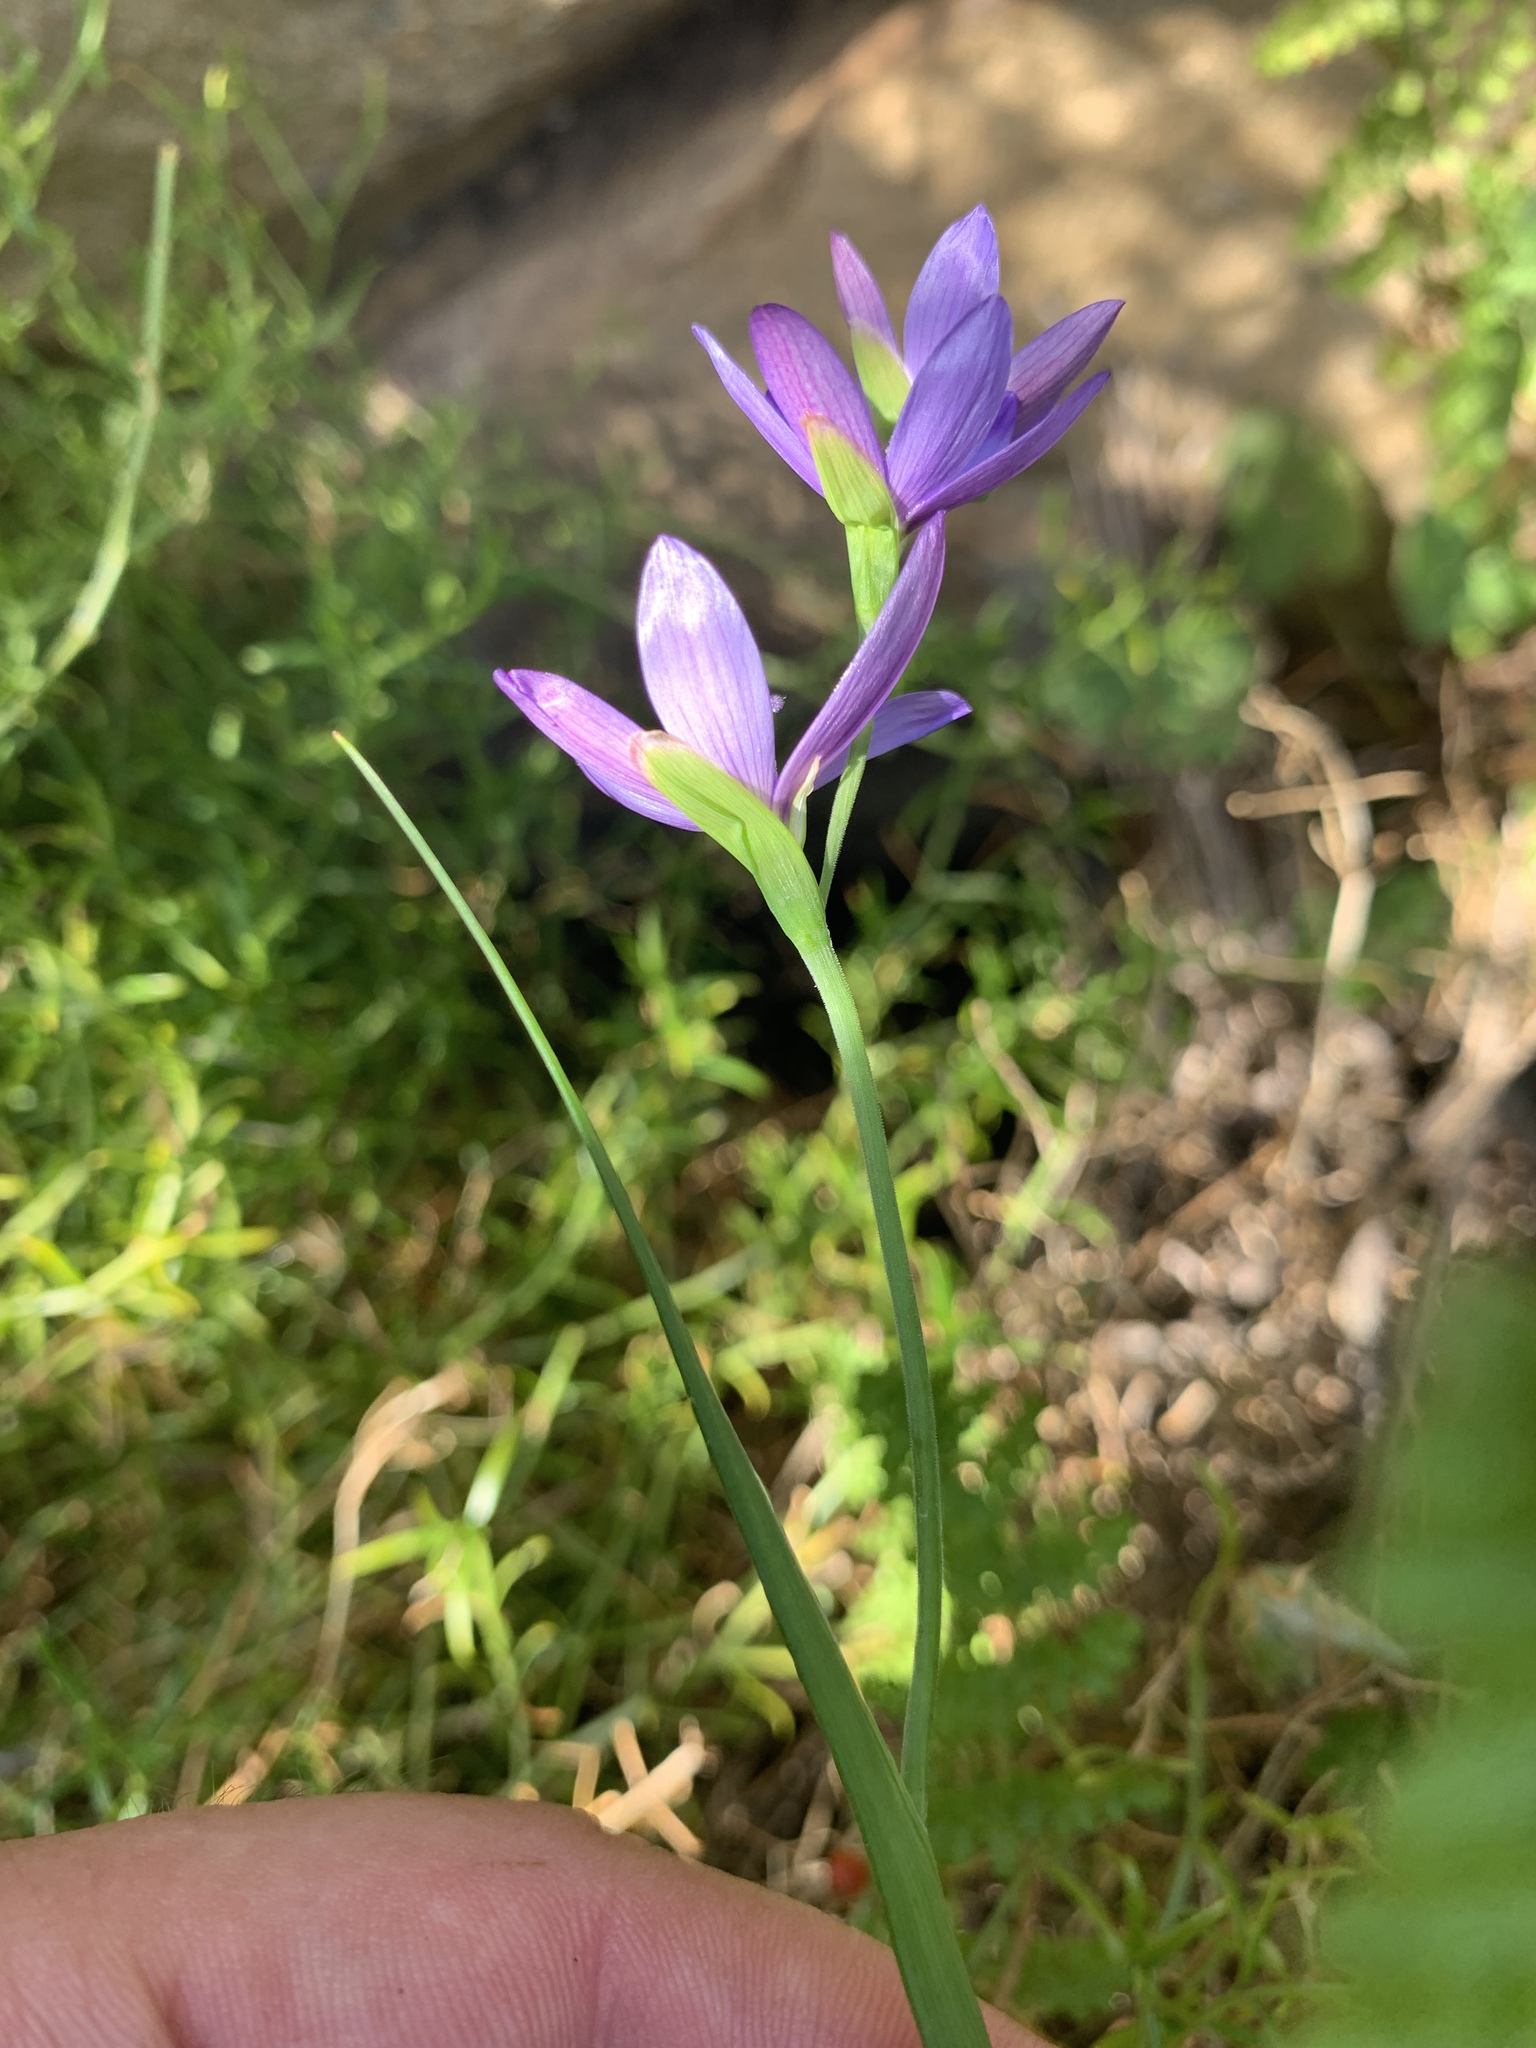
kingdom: Plantae
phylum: Tracheophyta
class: Liliopsida
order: Asparagales
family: Iridaceae
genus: Geissorhiza
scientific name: Geissorhiza aspera
